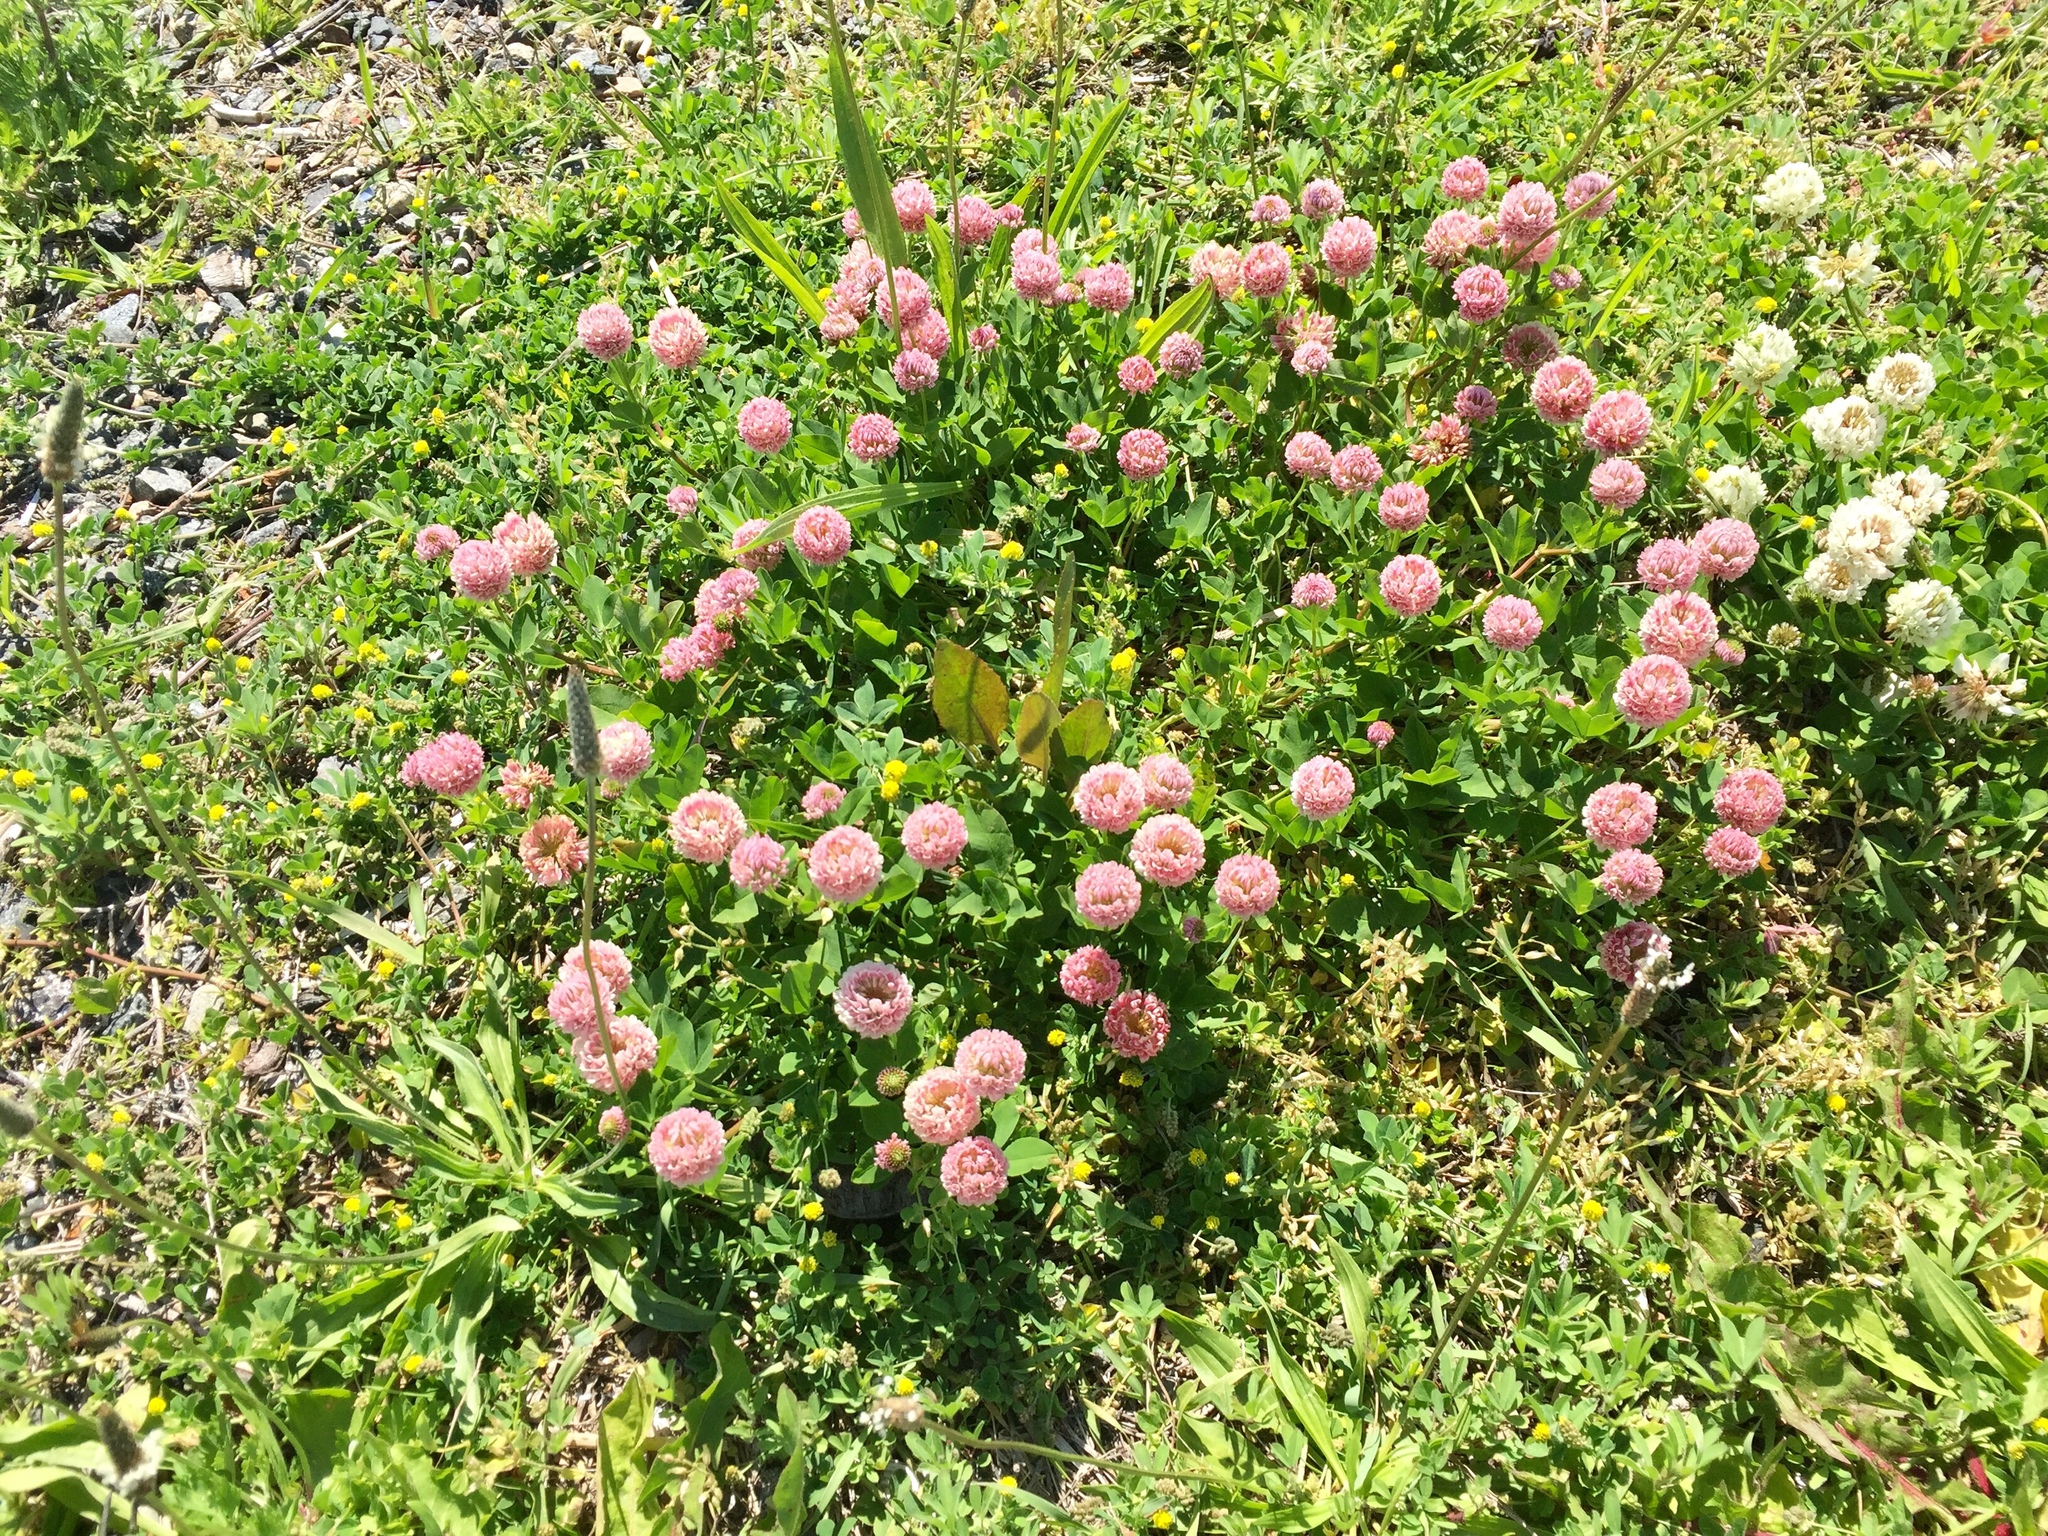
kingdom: Plantae
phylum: Tracheophyta
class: Magnoliopsida
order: Fabales
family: Fabaceae
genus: Trifolium
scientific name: Trifolium hybridum
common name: Alsike clover
